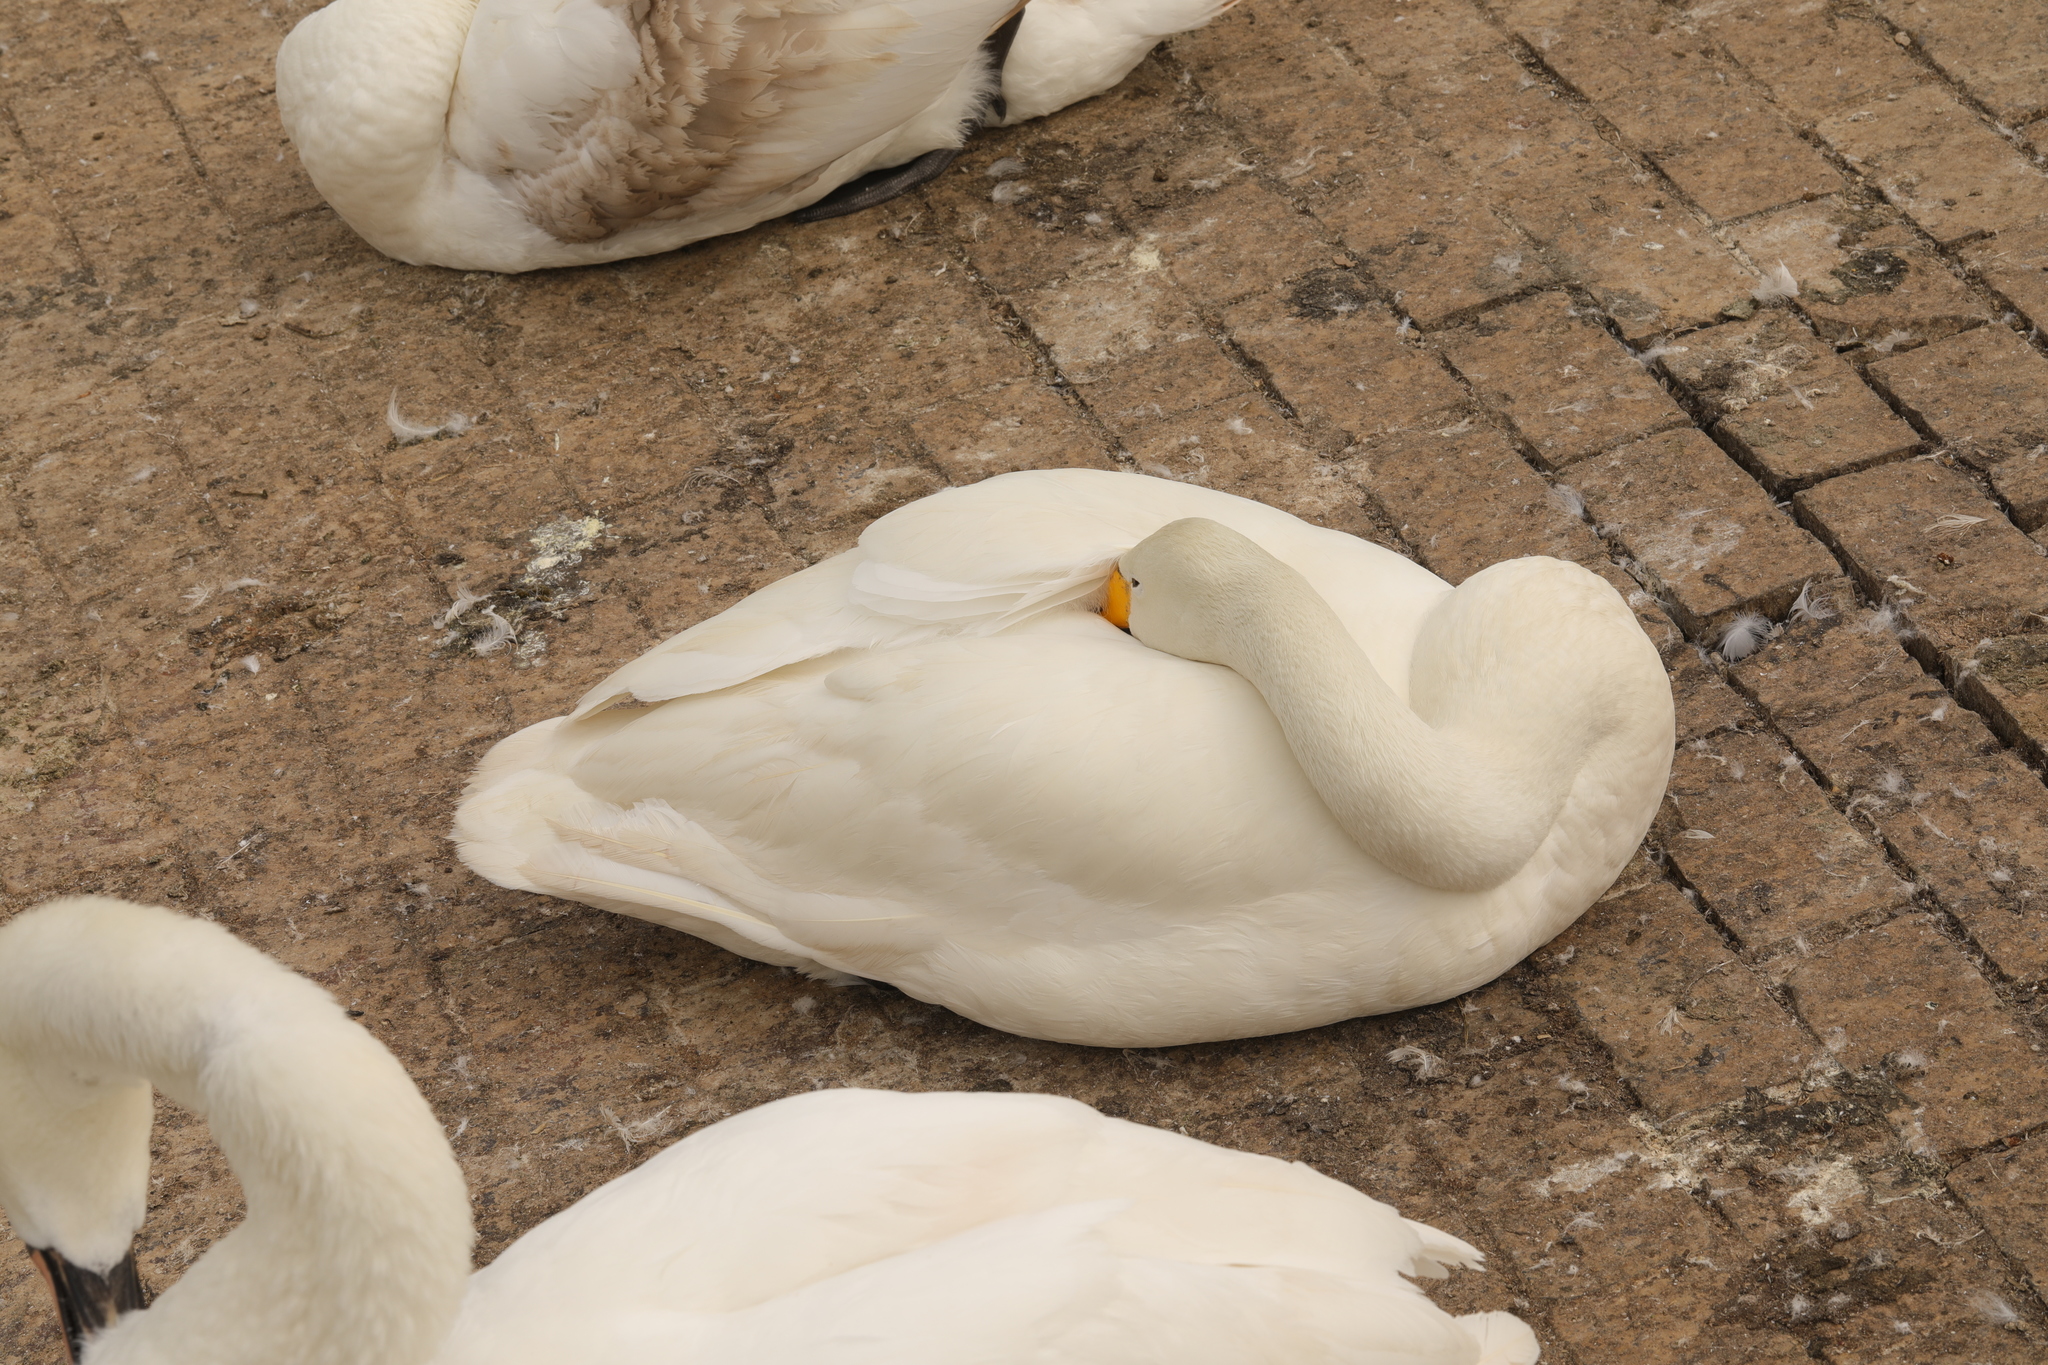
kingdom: Animalia
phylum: Chordata
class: Aves
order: Anseriformes
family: Anatidae
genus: Cygnus
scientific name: Cygnus cygnus
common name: Whooper swan
